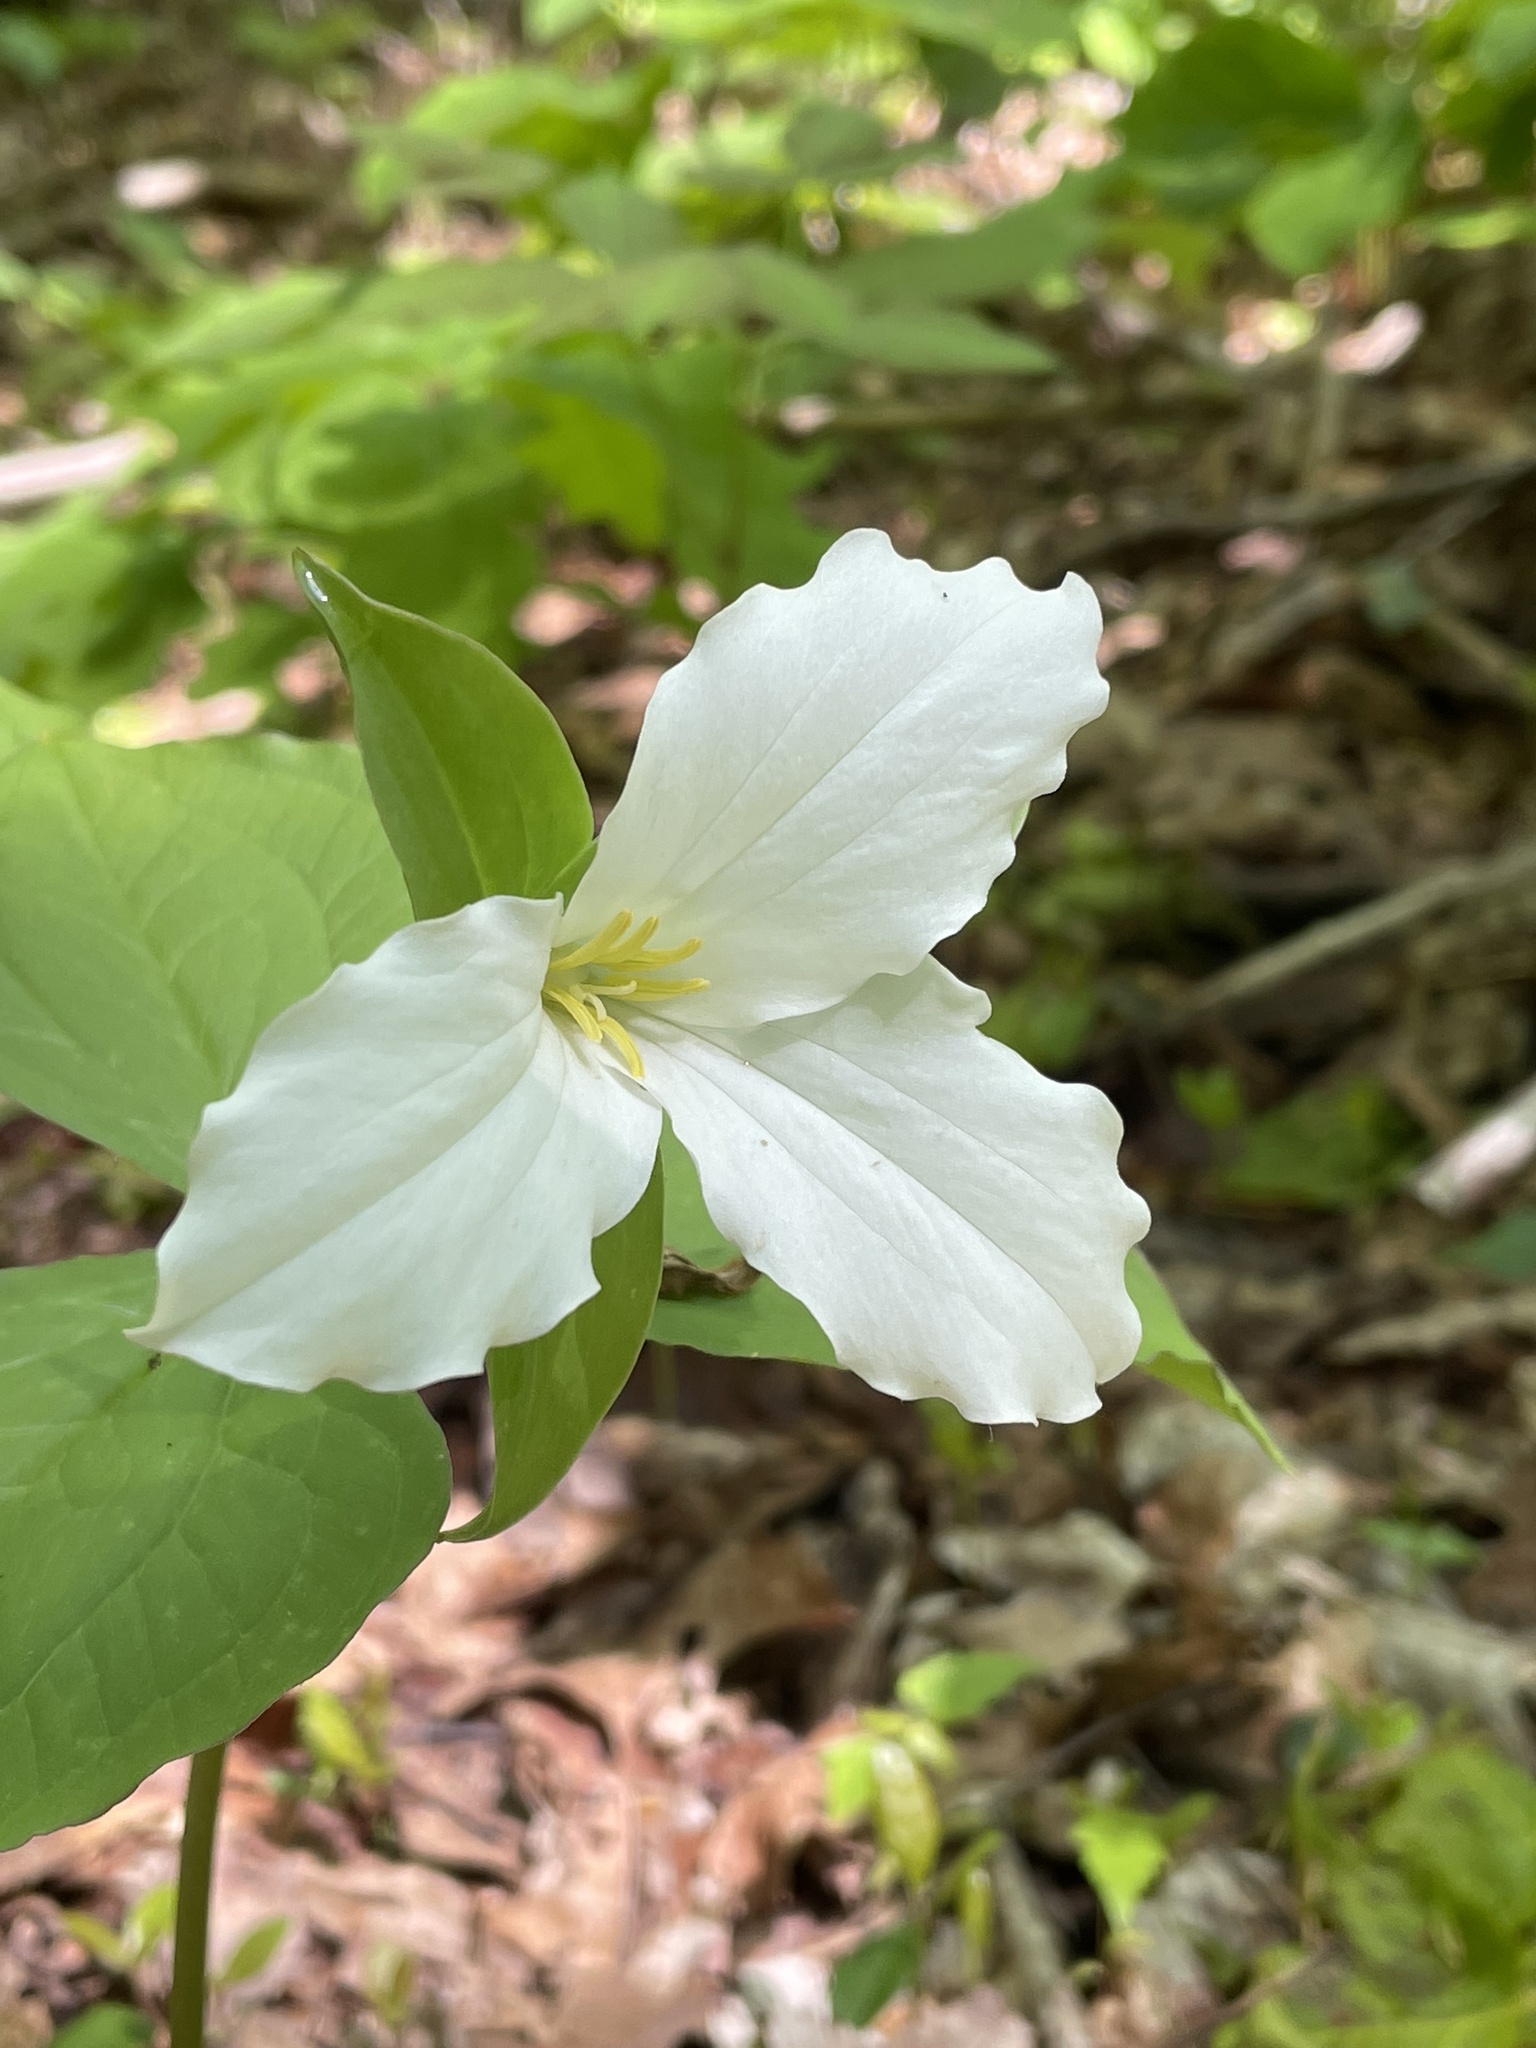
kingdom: Plantae
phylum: Tracheophyta
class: Liliopsida
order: Liliales
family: Melanthiaceae
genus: Trillium
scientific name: Trillium grandiflorum
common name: Great white trillium
